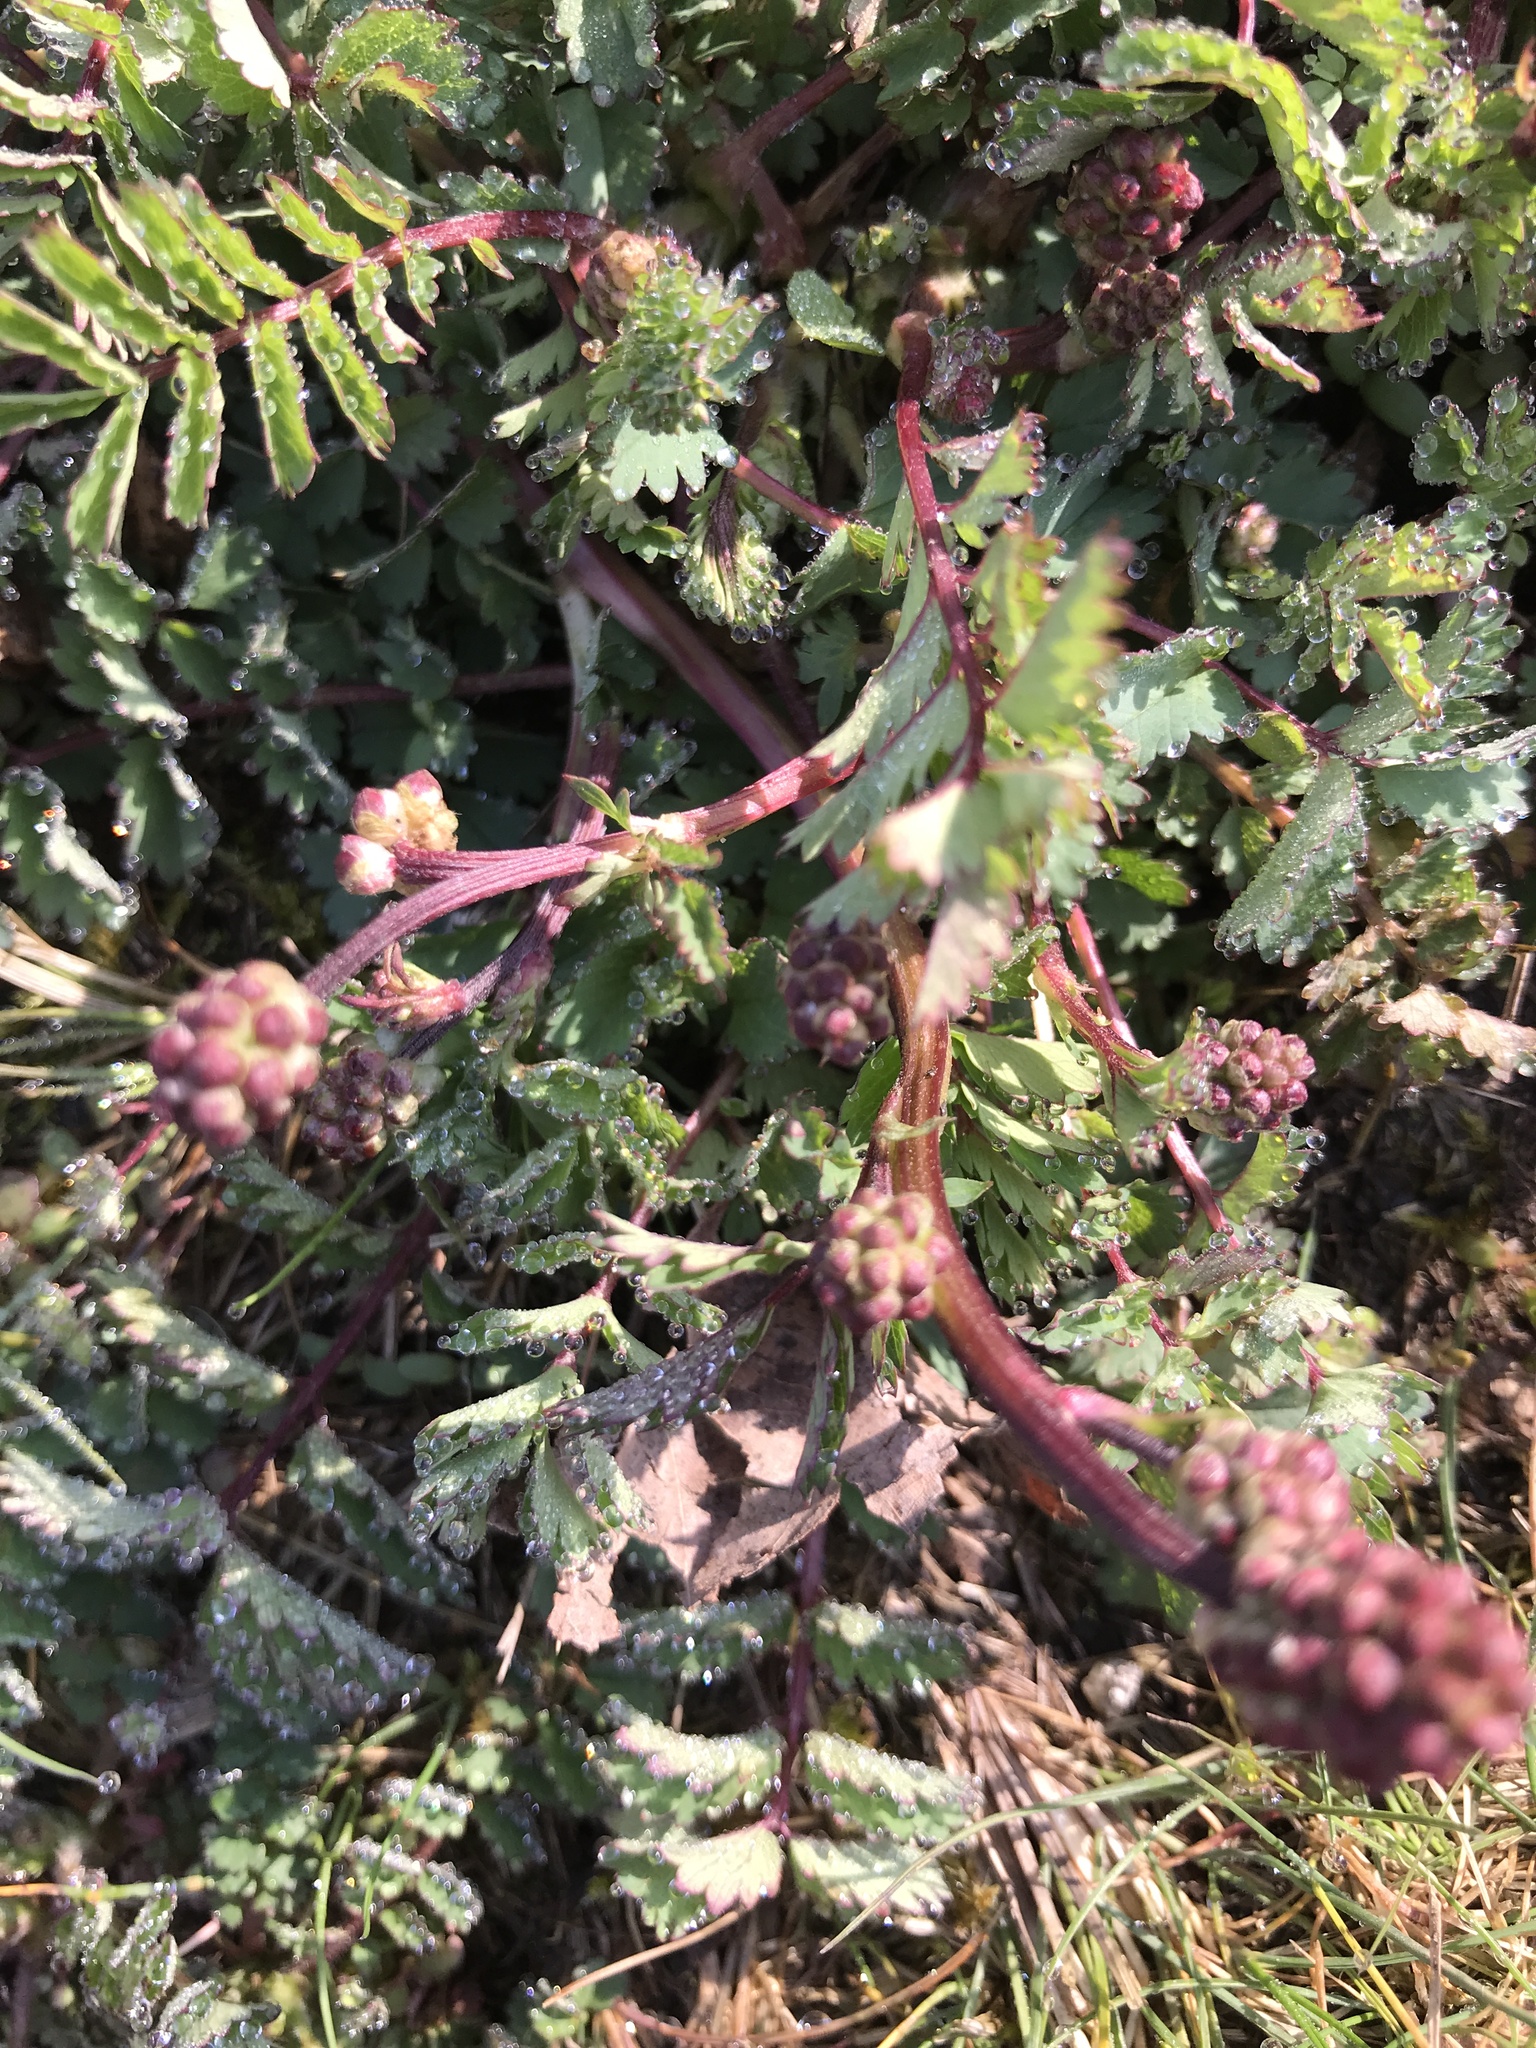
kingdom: Plantae
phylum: Tracheophyta
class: Magnoliopsida
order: Rosales
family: Rosaceae
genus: Poterium
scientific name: Poterium sanguisorba
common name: Salad burnet
